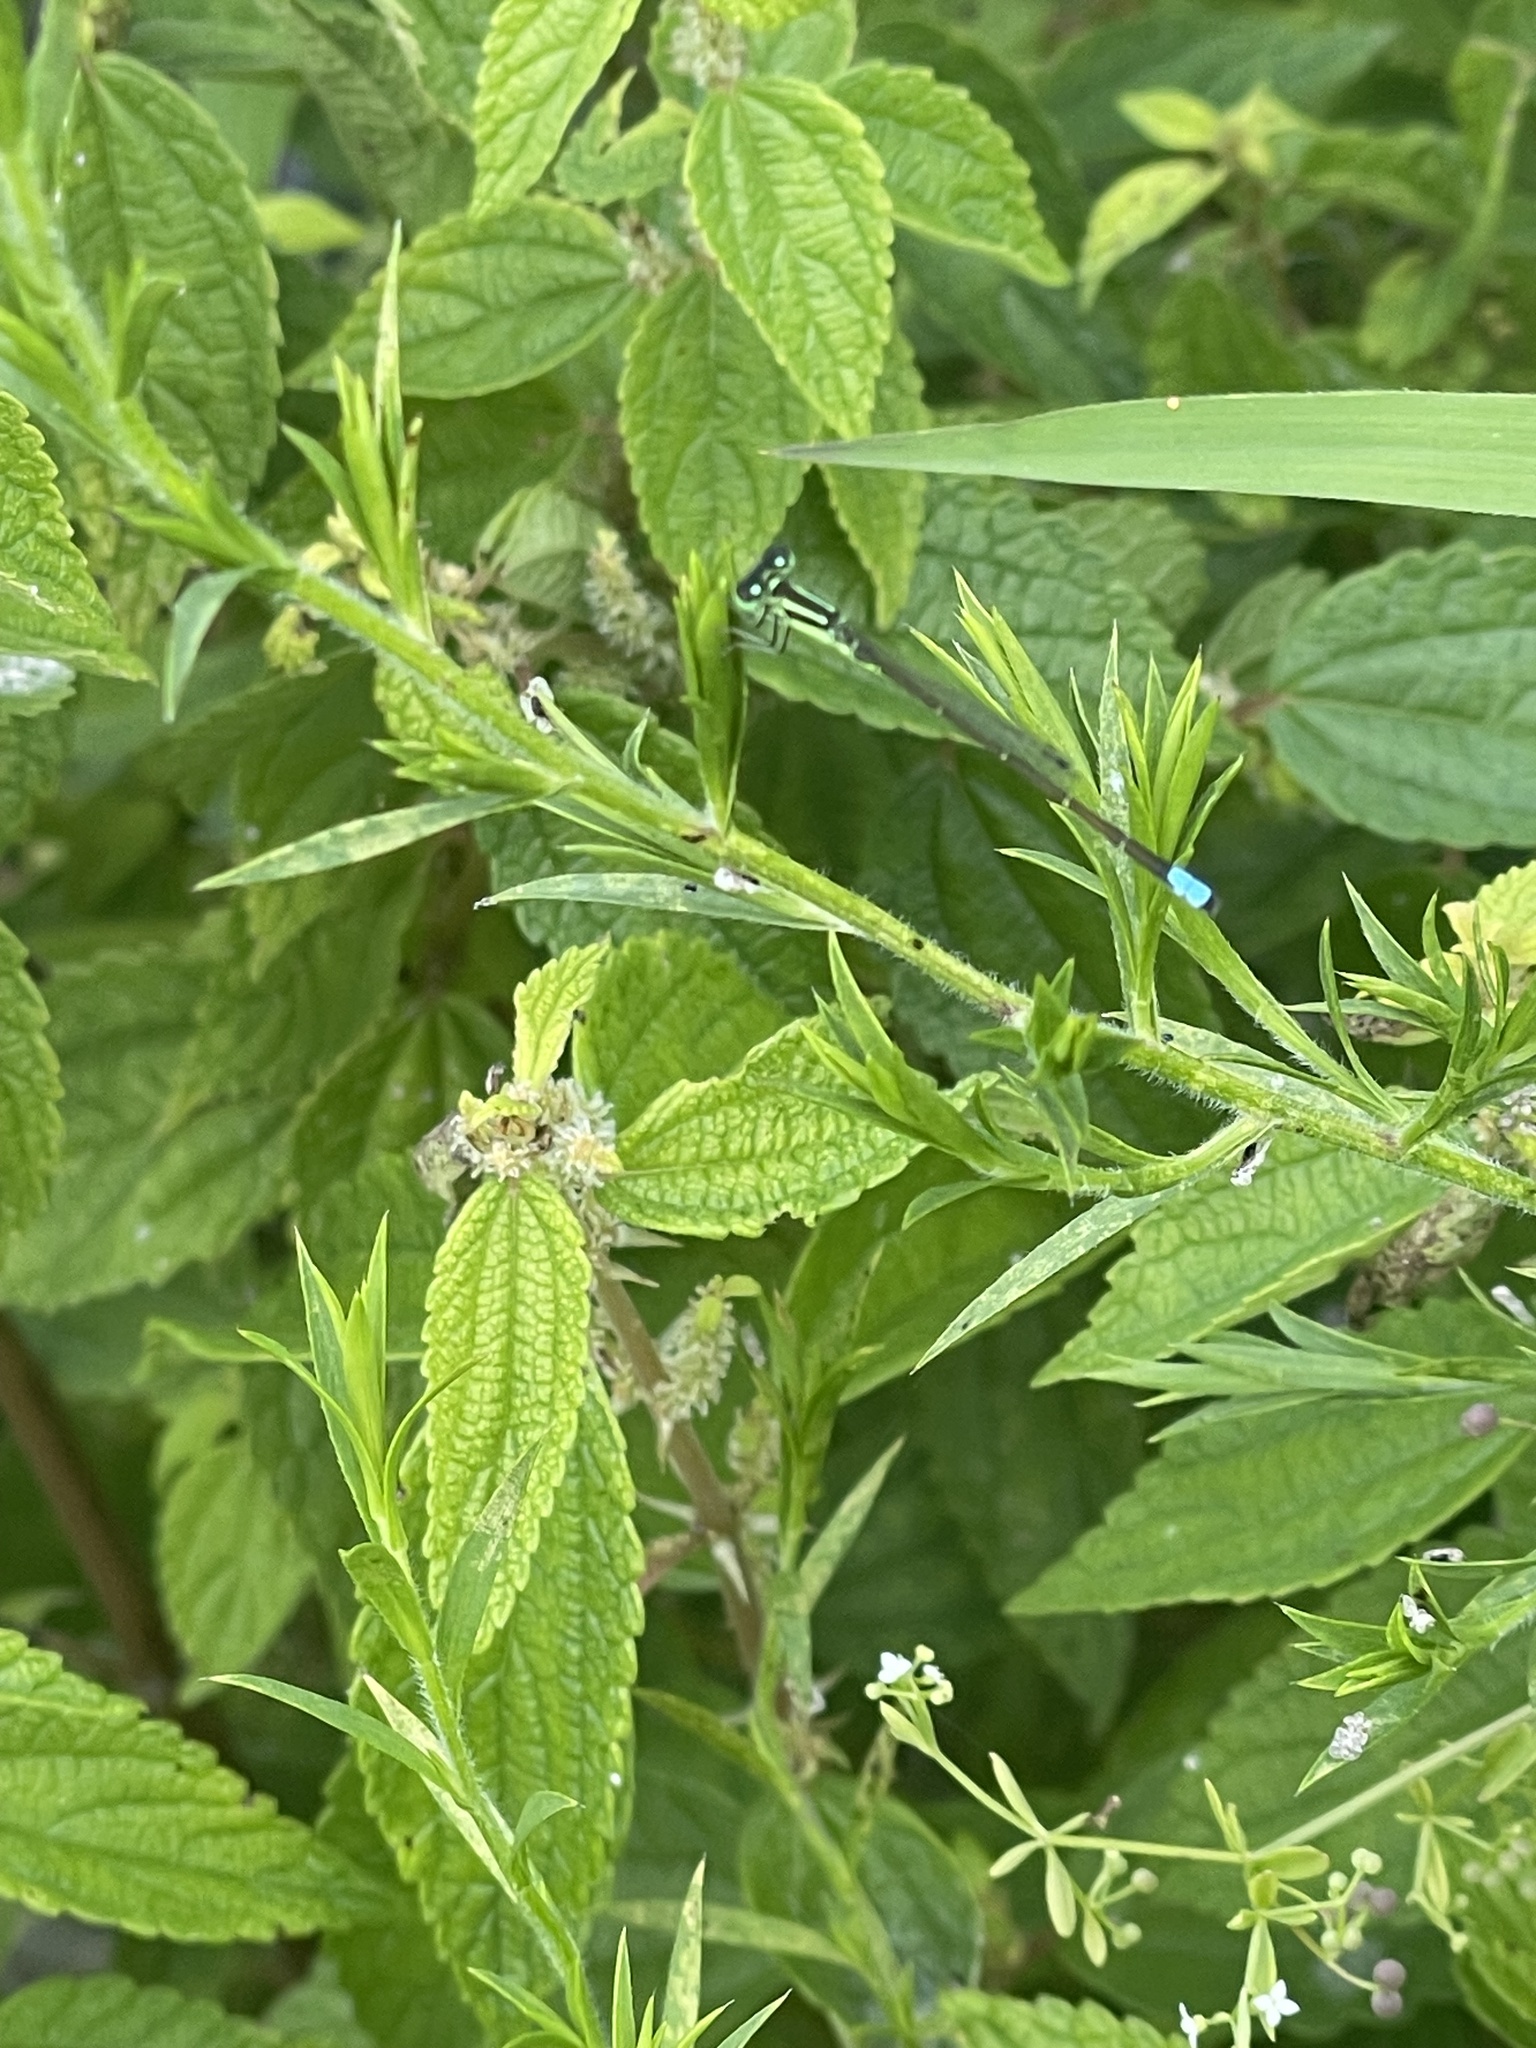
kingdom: Animalia
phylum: Arthropoda
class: Insecta
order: Odonata
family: Coenagrionidae
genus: Ischnura
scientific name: Ischnura verticalis
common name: Eastern forktail
